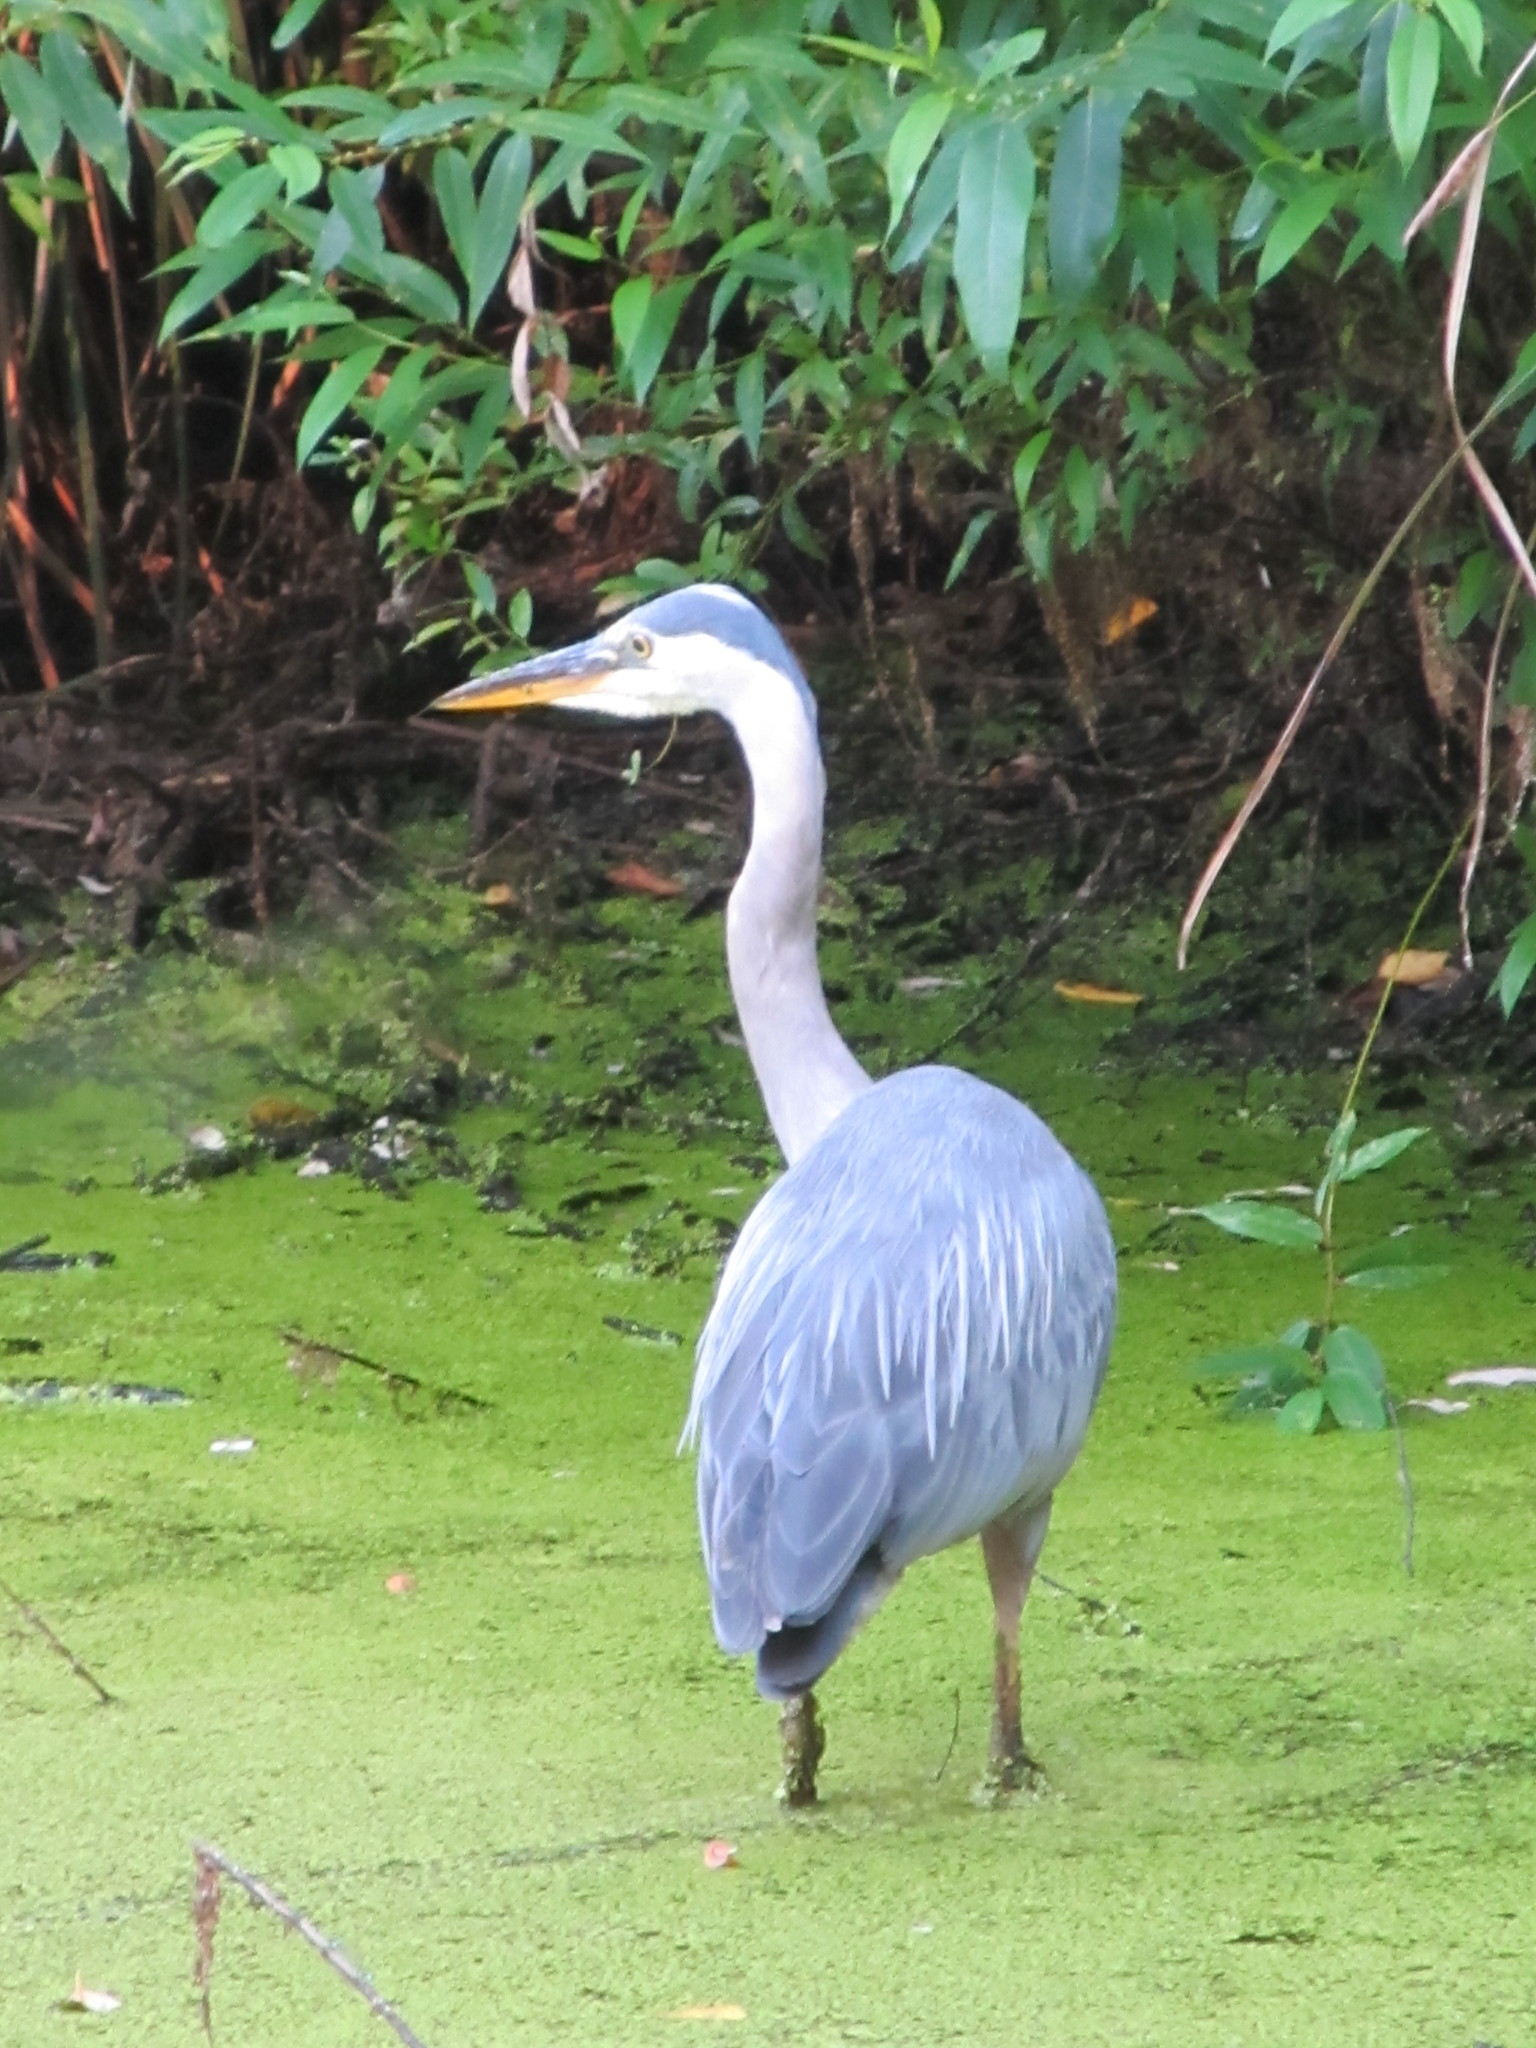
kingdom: Animalia
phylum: Chordata
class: Aves
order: Pelecaniformes
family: Ardeidae
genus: Ardea
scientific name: Ardea herodias
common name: Great blue heron
